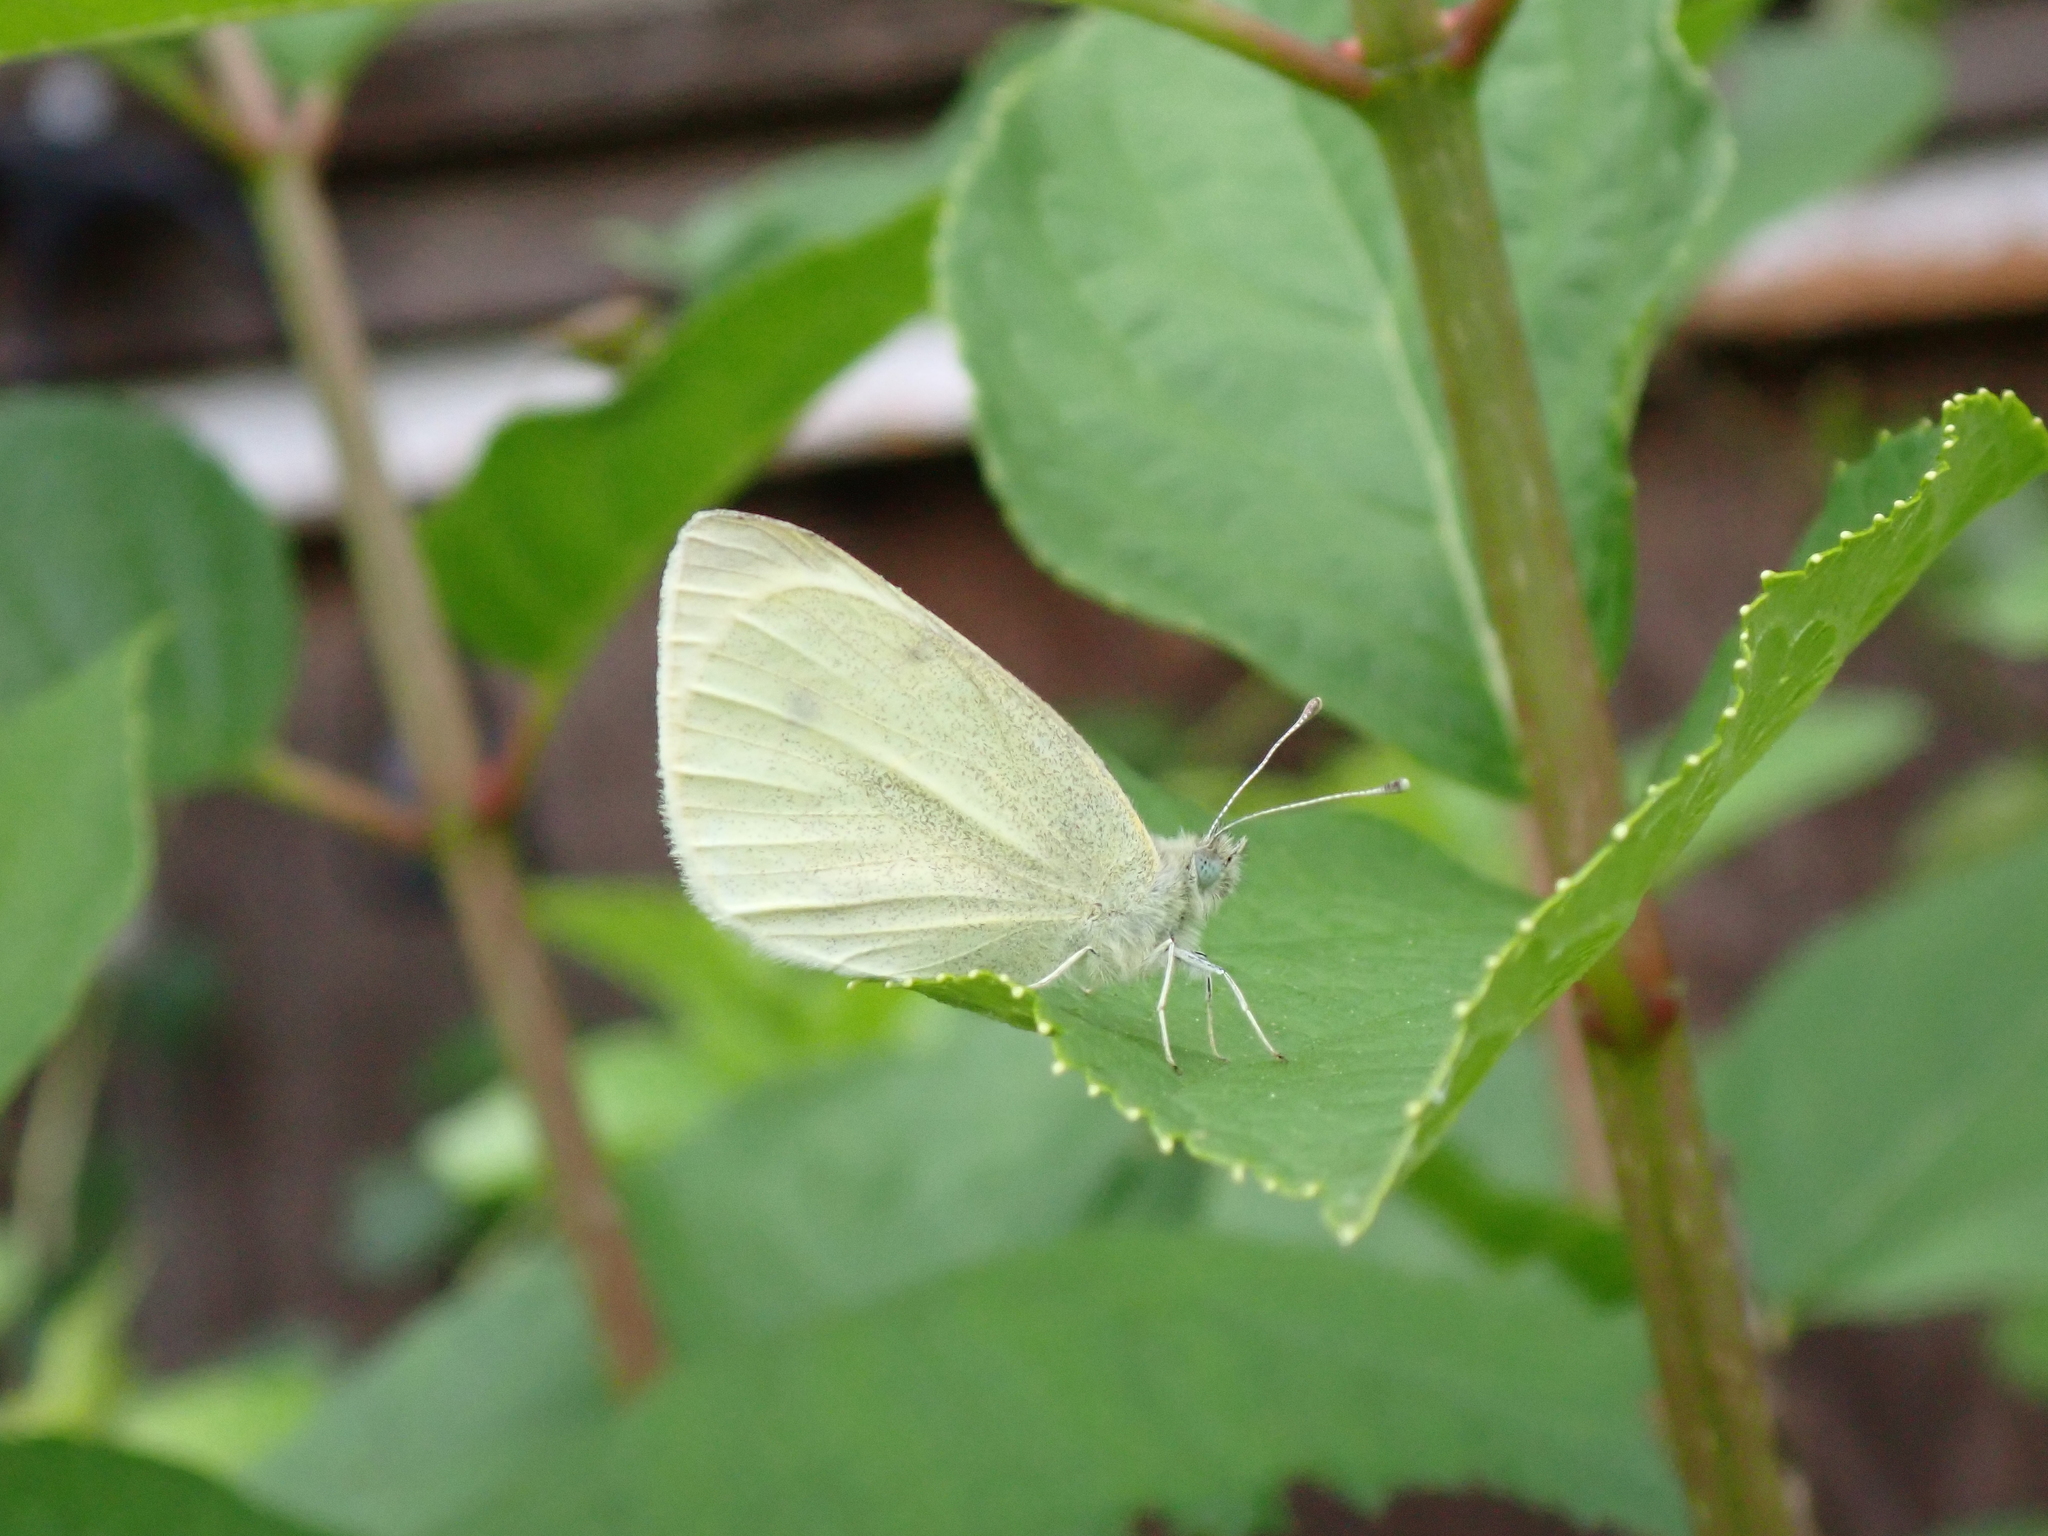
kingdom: Animalia
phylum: Arthropoda
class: Insecta
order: Lepidoptera
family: Pieridae
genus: Pieris
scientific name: Pieris rapae
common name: Small white
